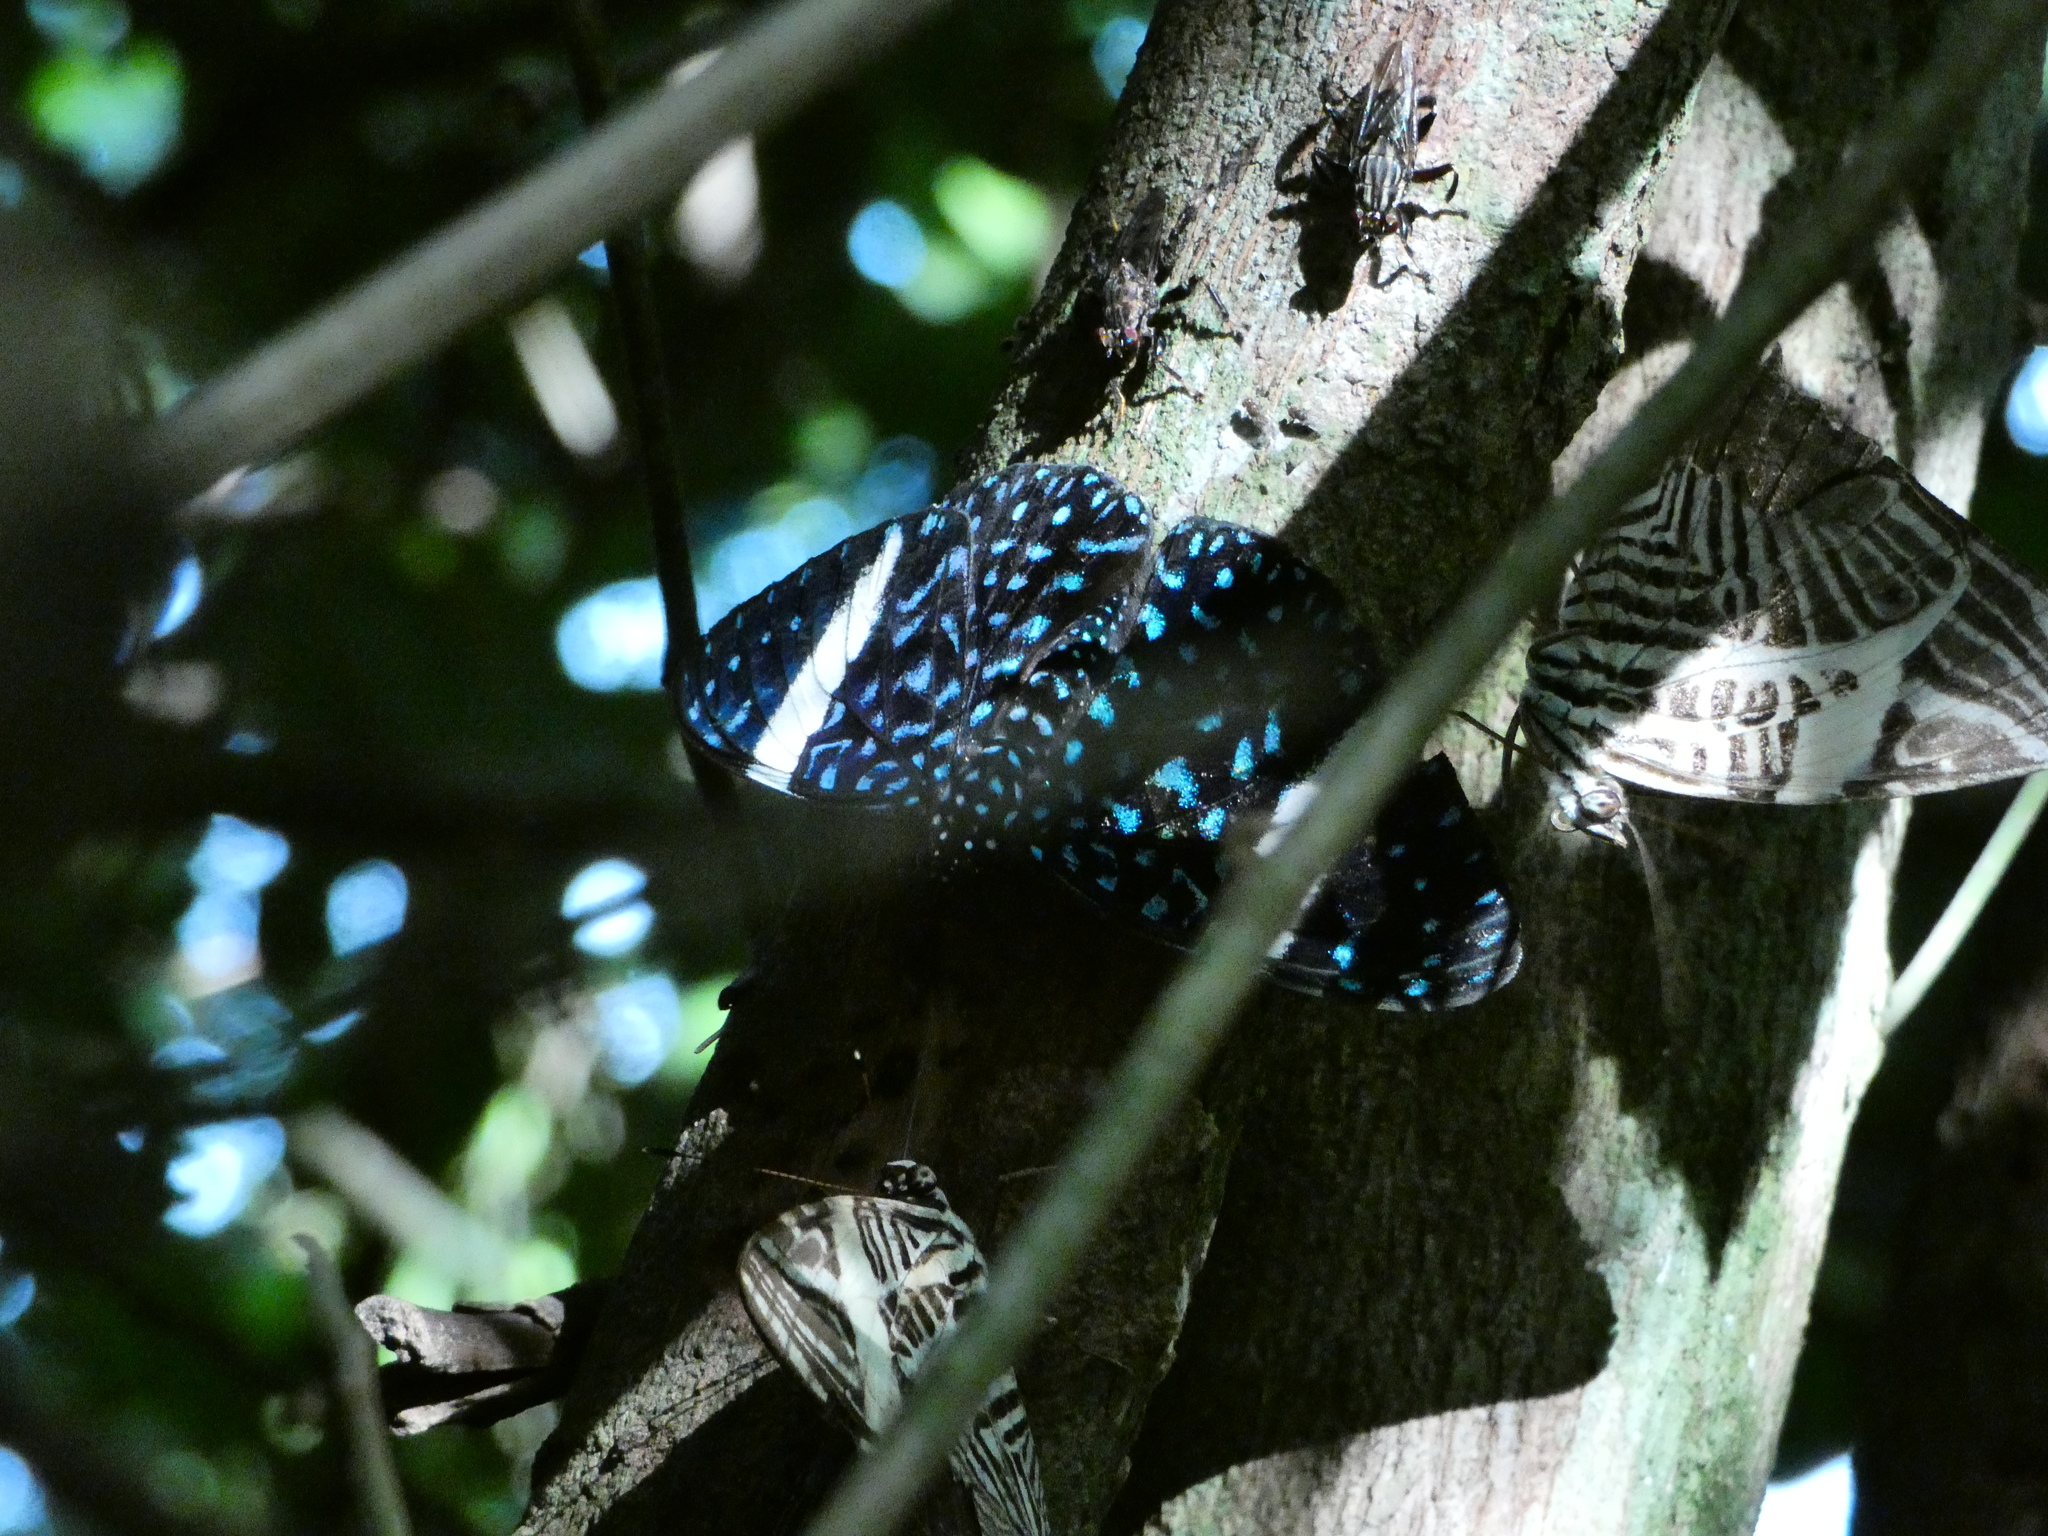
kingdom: Animalia
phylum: Arthropoda
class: Insecta
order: Lepidoptera
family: Nymphalidae
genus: Hamadryas
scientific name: Hamadryas laodamia
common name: Starry night cracker
